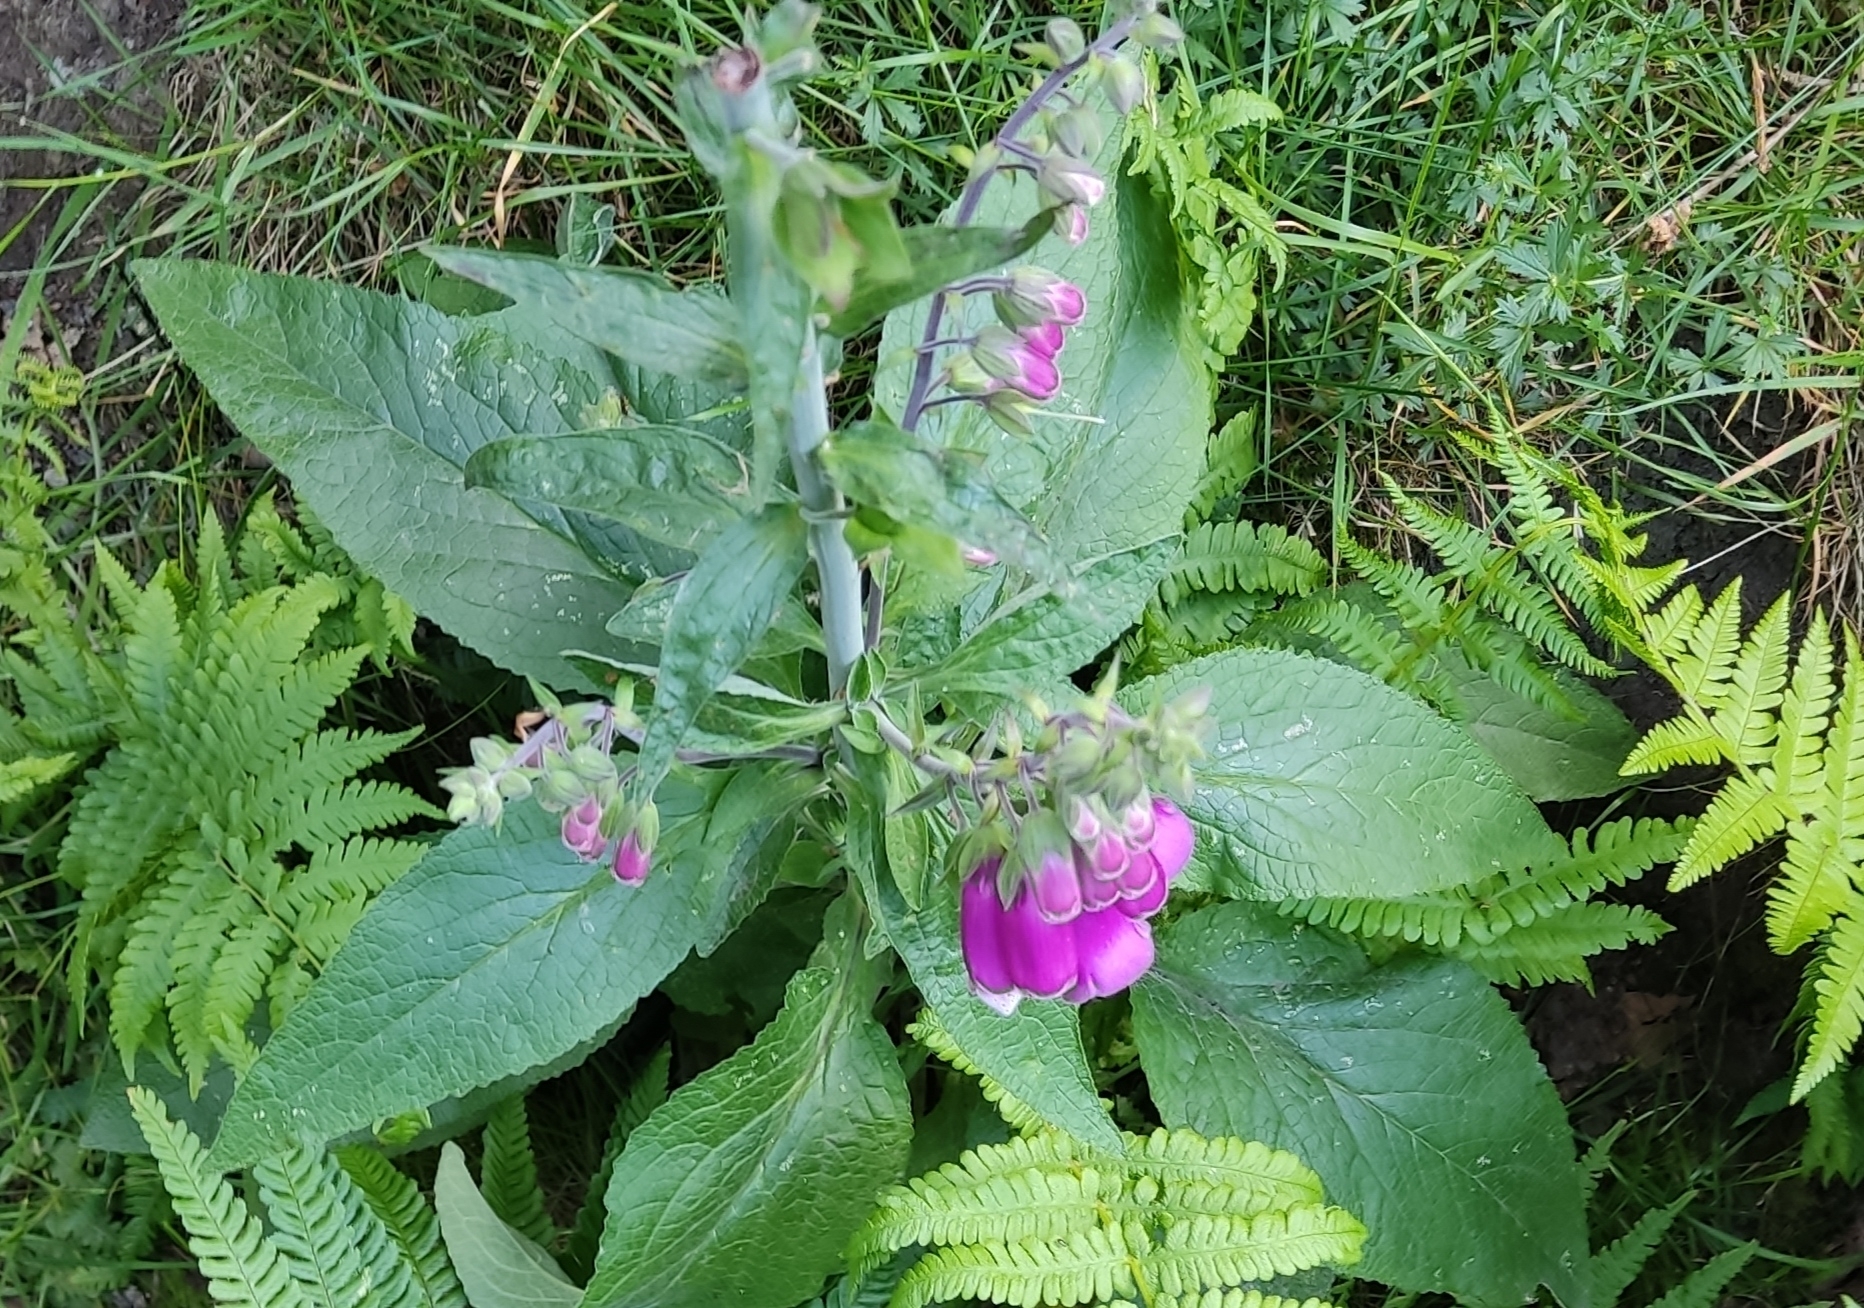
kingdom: Plantae
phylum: Tracheophyta
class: Magnoliopsida
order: Lamiales
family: Plantaginaceae
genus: Digitalis
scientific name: Digitalis purpurea
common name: Foxglove
